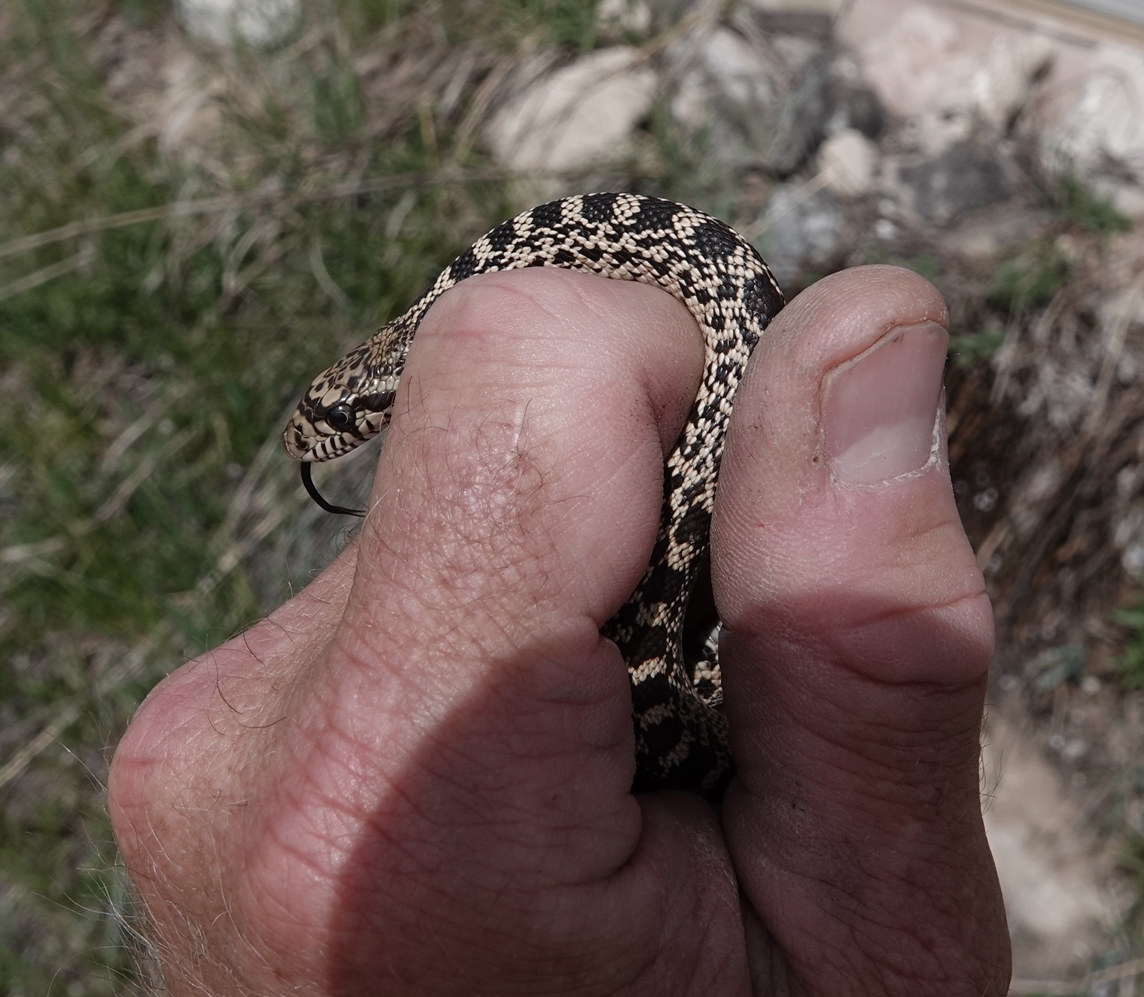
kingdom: Animalia
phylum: Chordata
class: Squamata
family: Colubridae
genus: Pituophis
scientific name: Pituophis catenifer
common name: Gopher snake
